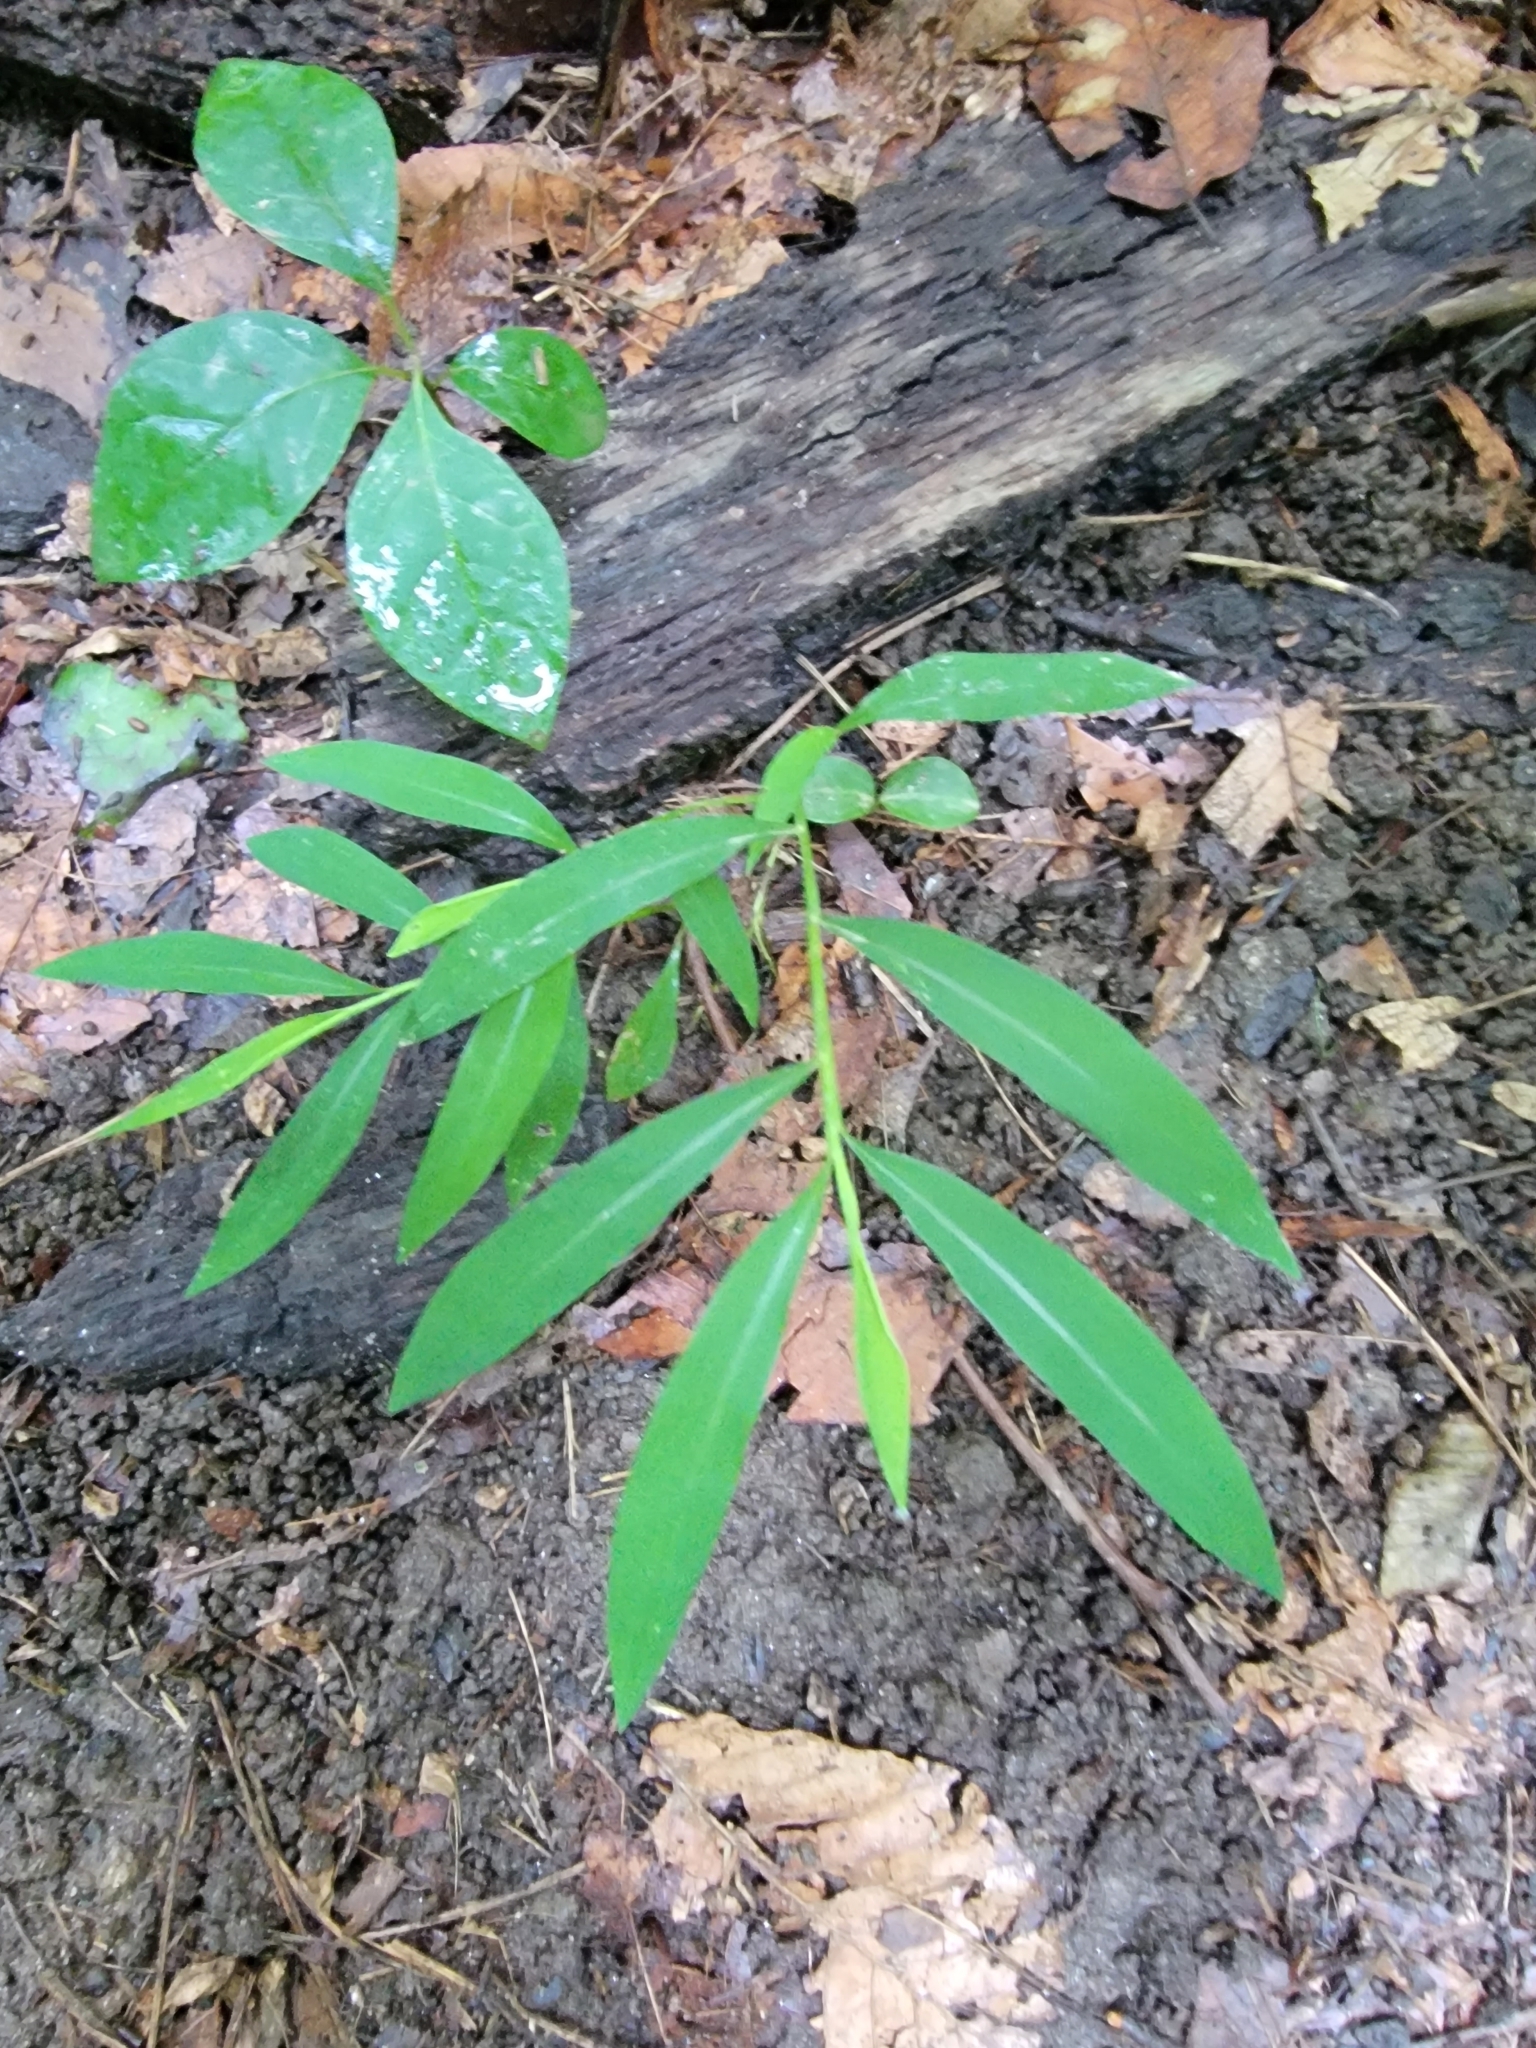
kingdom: Plantae
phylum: Tracheophyta
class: Liliopsida
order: Poales
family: Poaceae
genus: Microstegium
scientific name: Microstegium vimineum
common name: Japanese stiltgrass
